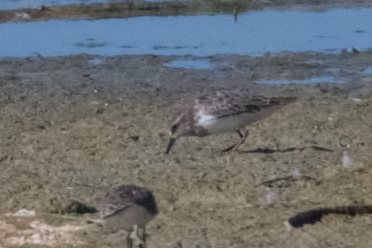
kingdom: Animalia
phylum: Chordata
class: Aves
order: Charadriiformes
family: Scolopacidae
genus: Calidris
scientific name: Calidris minutilla
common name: Least sandpiper
